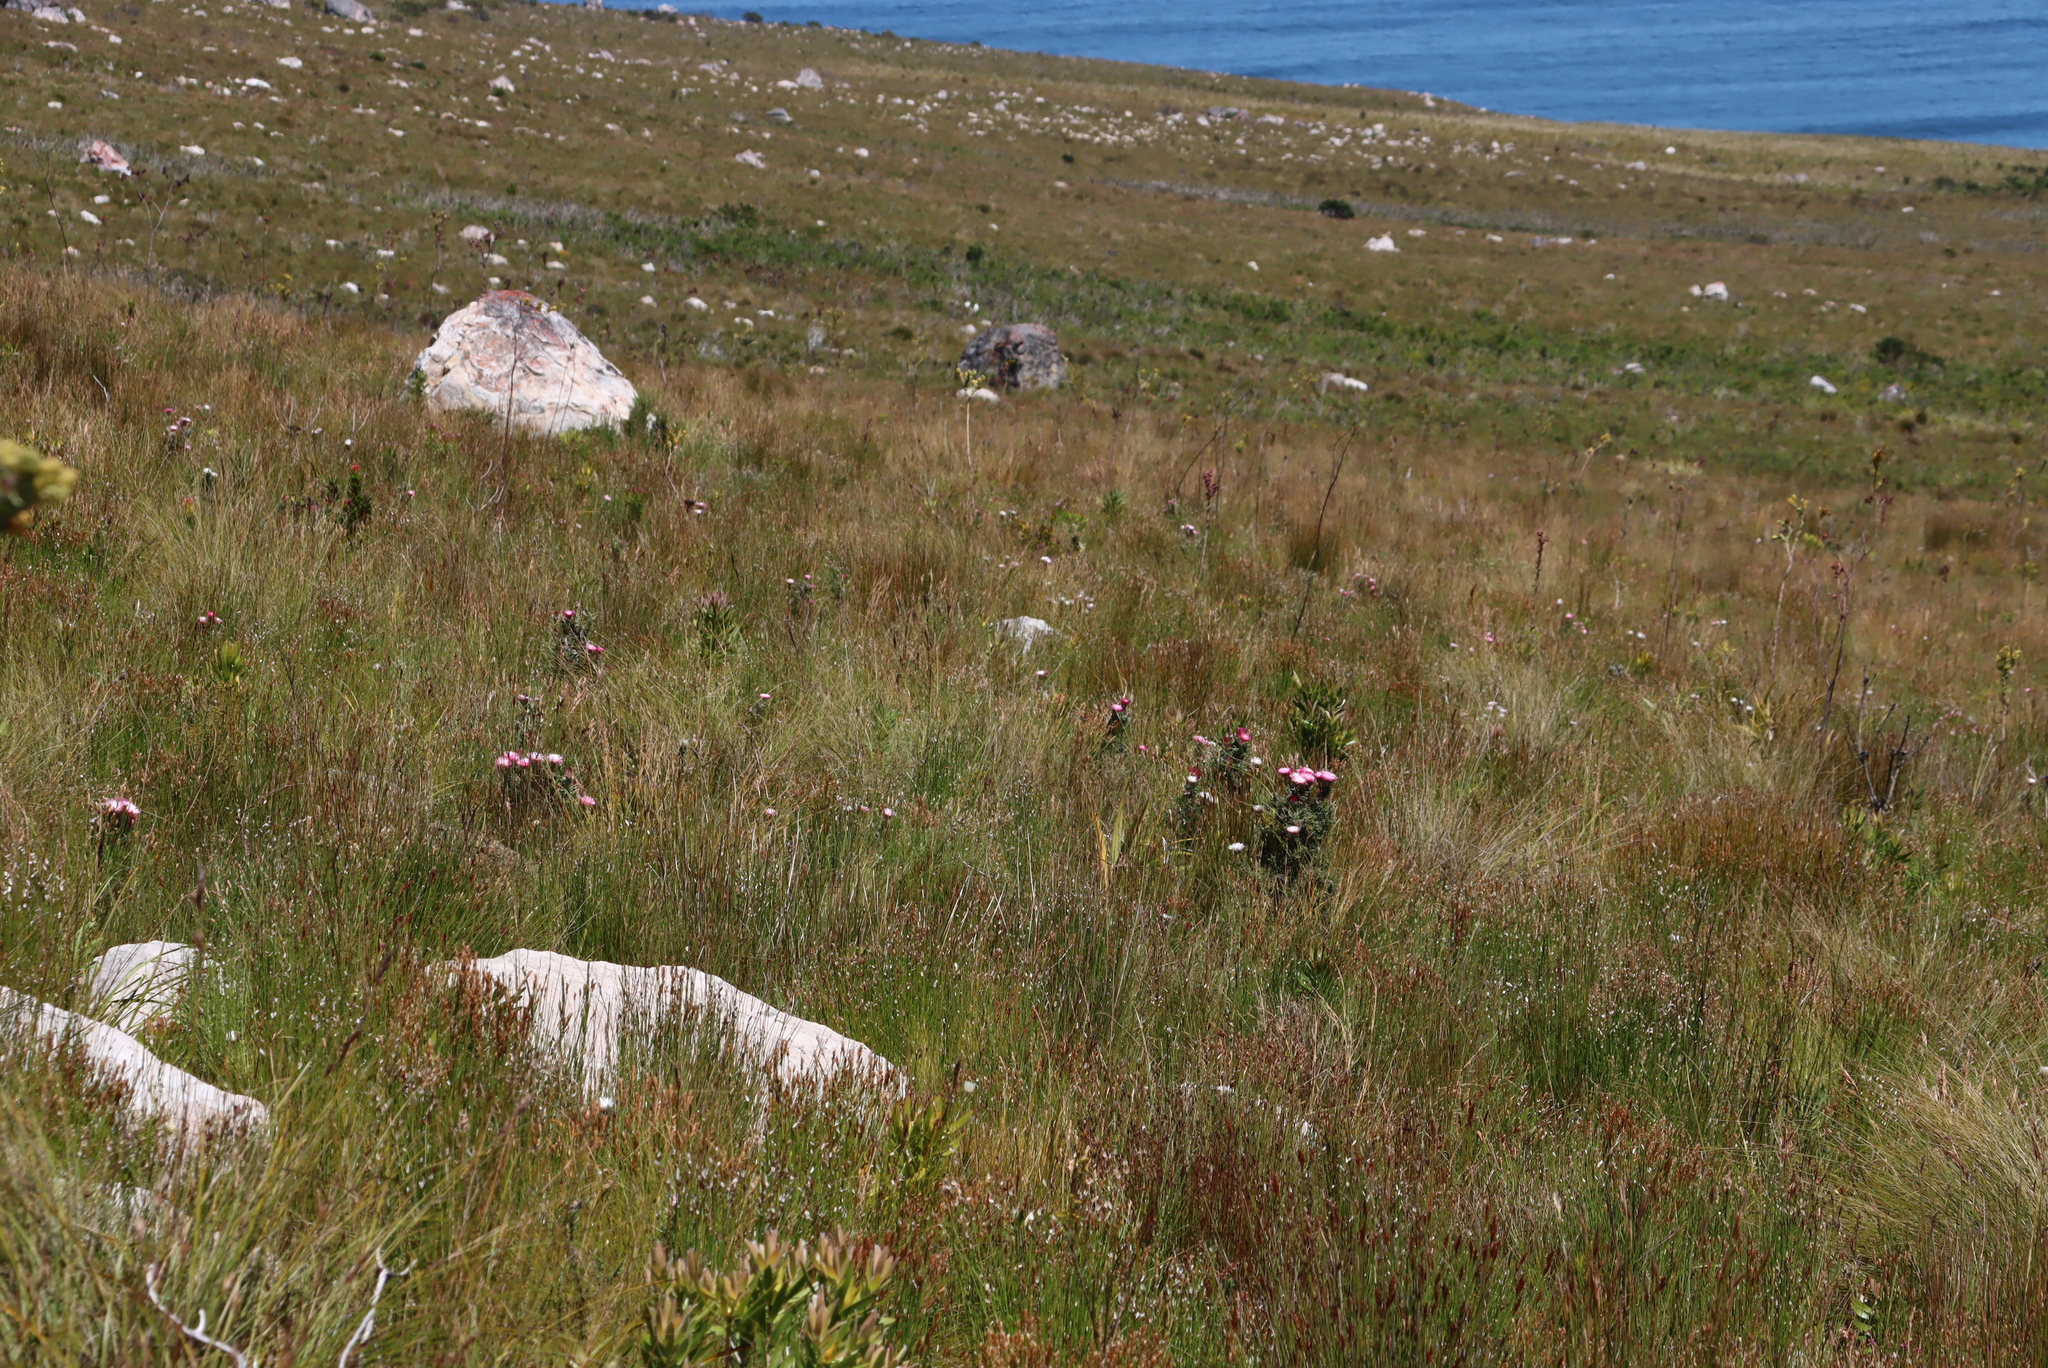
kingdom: Plantae
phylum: Tracheophyta
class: Magnoliopsida
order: Asterales
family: Asteraceae
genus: Phaenocoma
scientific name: Phaenocoma prolifera
